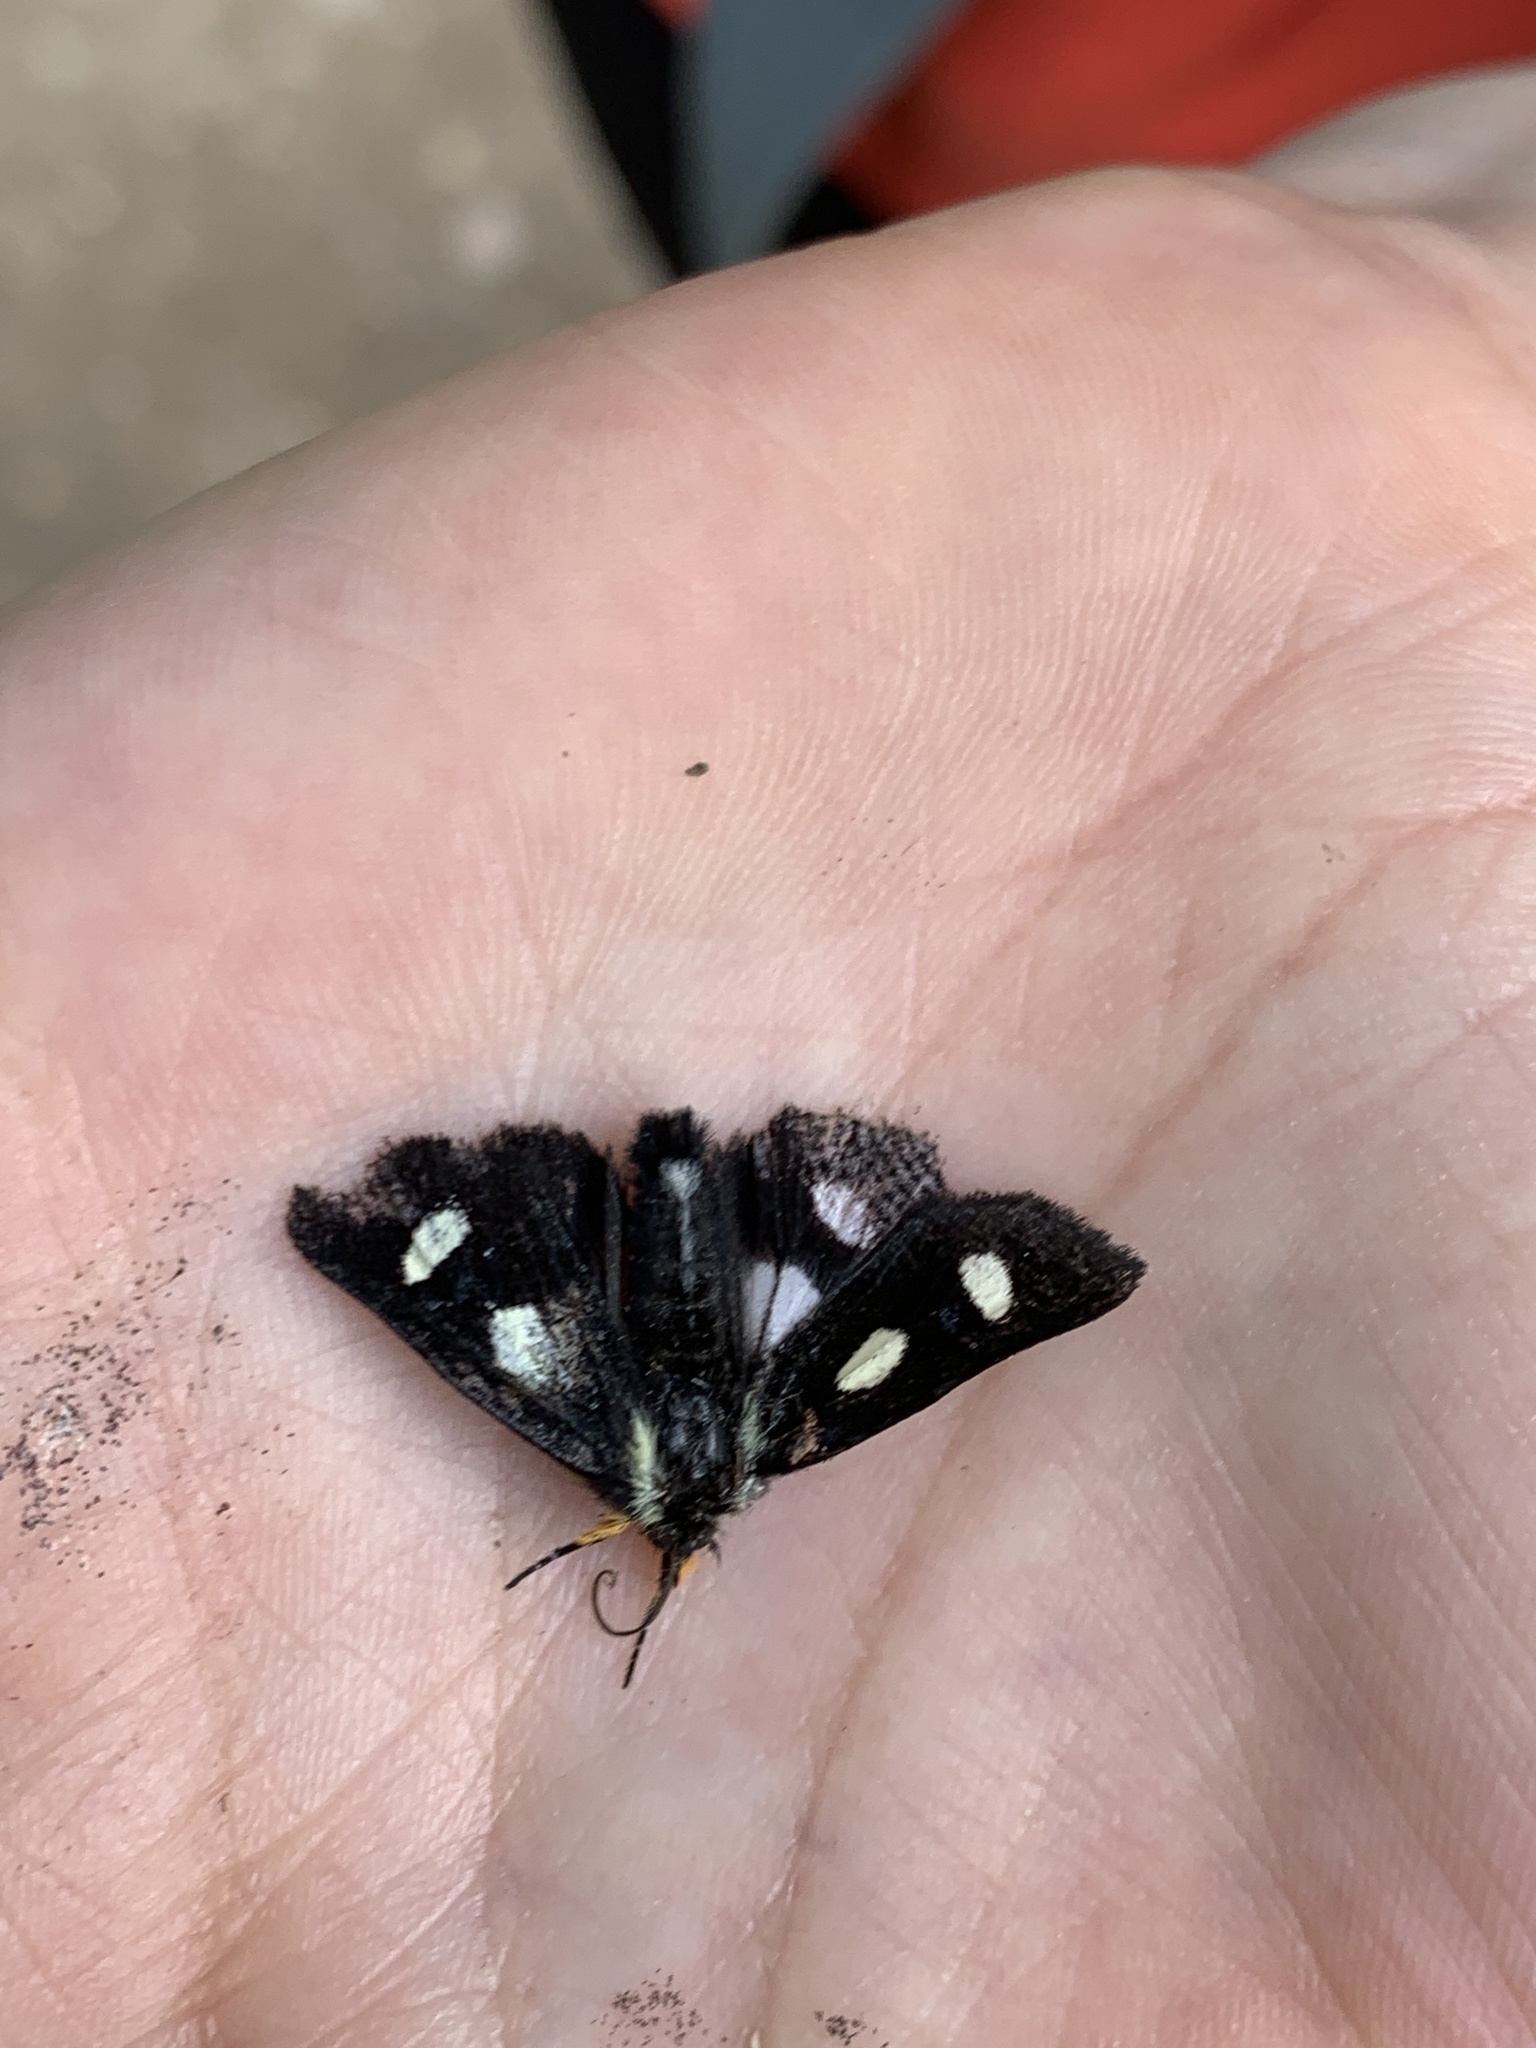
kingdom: Animalia
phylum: Arthropoda
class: Insecta
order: Lepidoptera
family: Noctuidae
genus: Alypia
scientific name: Alypia langtonii
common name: Fireweed caterpillar
